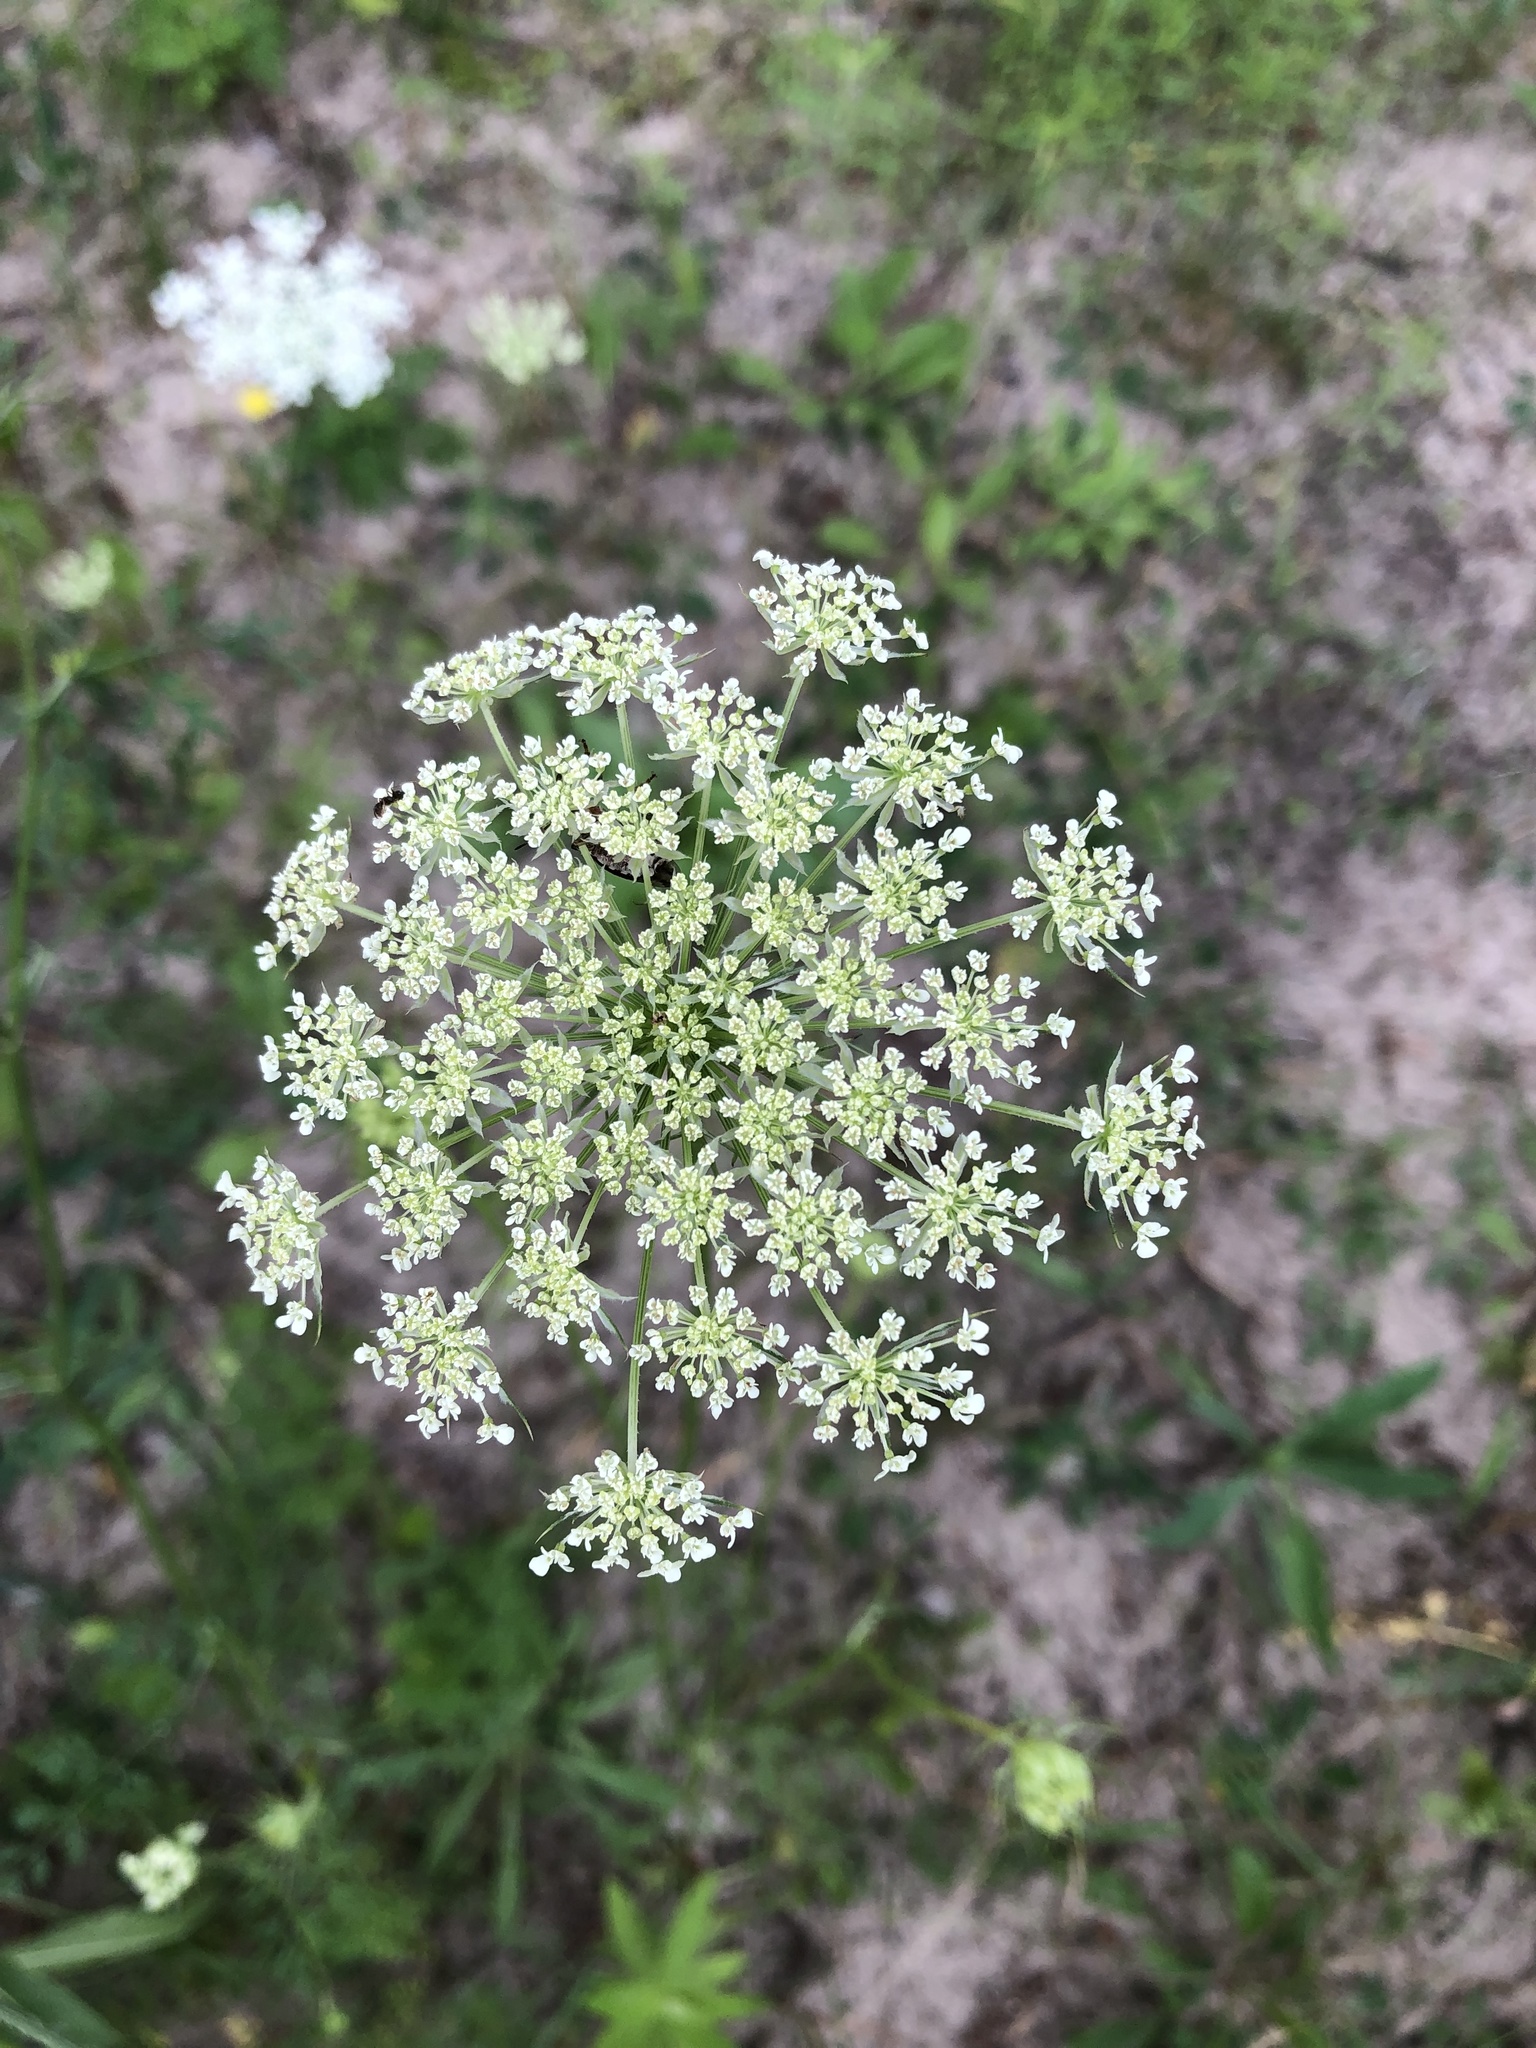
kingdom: Plantae
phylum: Tracheophyta
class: Magnoliopsida
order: Apiales
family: Apiaceae
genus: Daucus
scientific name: Daucus carota
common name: Wild carrot
